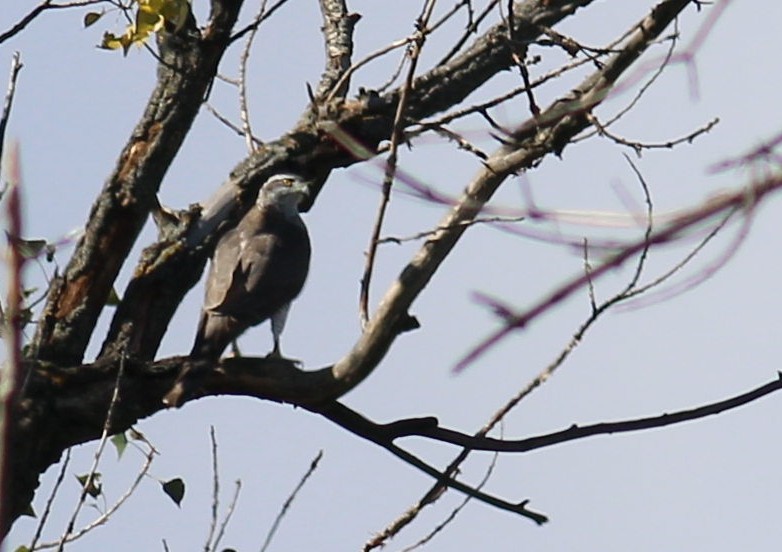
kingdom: Animalia
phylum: Chordata
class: Aves
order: Accipitriformes
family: Accipitridae
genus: Accipiter
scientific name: Accipiter gentilis
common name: Northern goshawk
